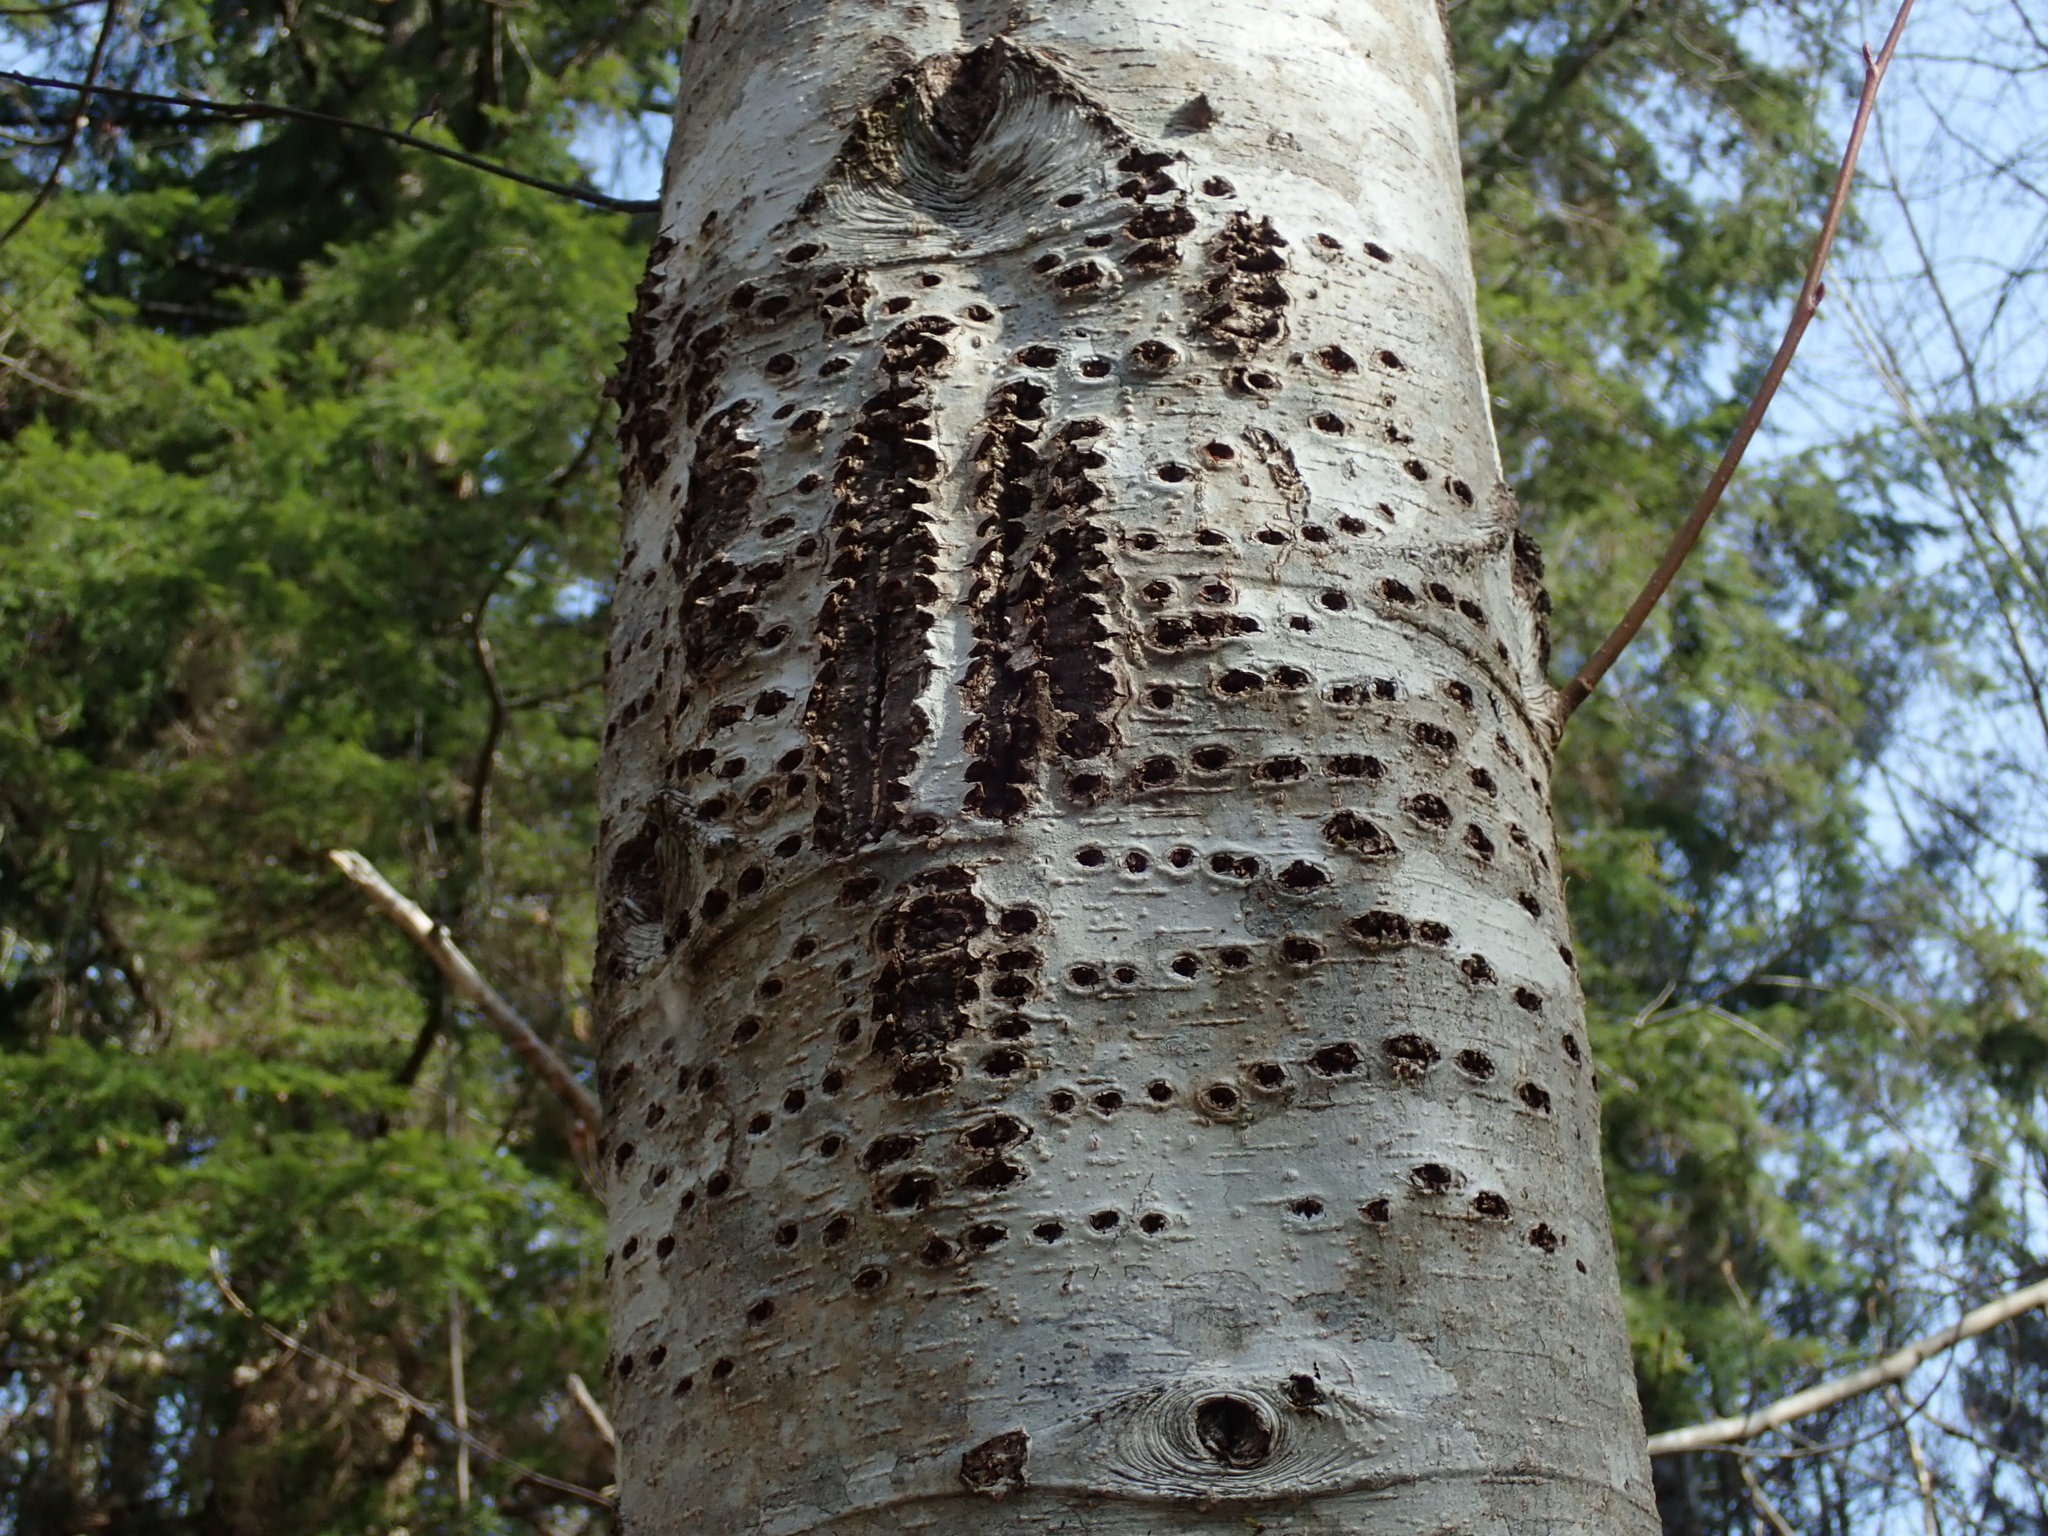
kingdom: Animalia
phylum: Chordata
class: Aves
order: Piciformes
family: Picidae
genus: Sphyrapicus
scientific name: Sphyrapicus ruber
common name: Red-breasted sapsucker
